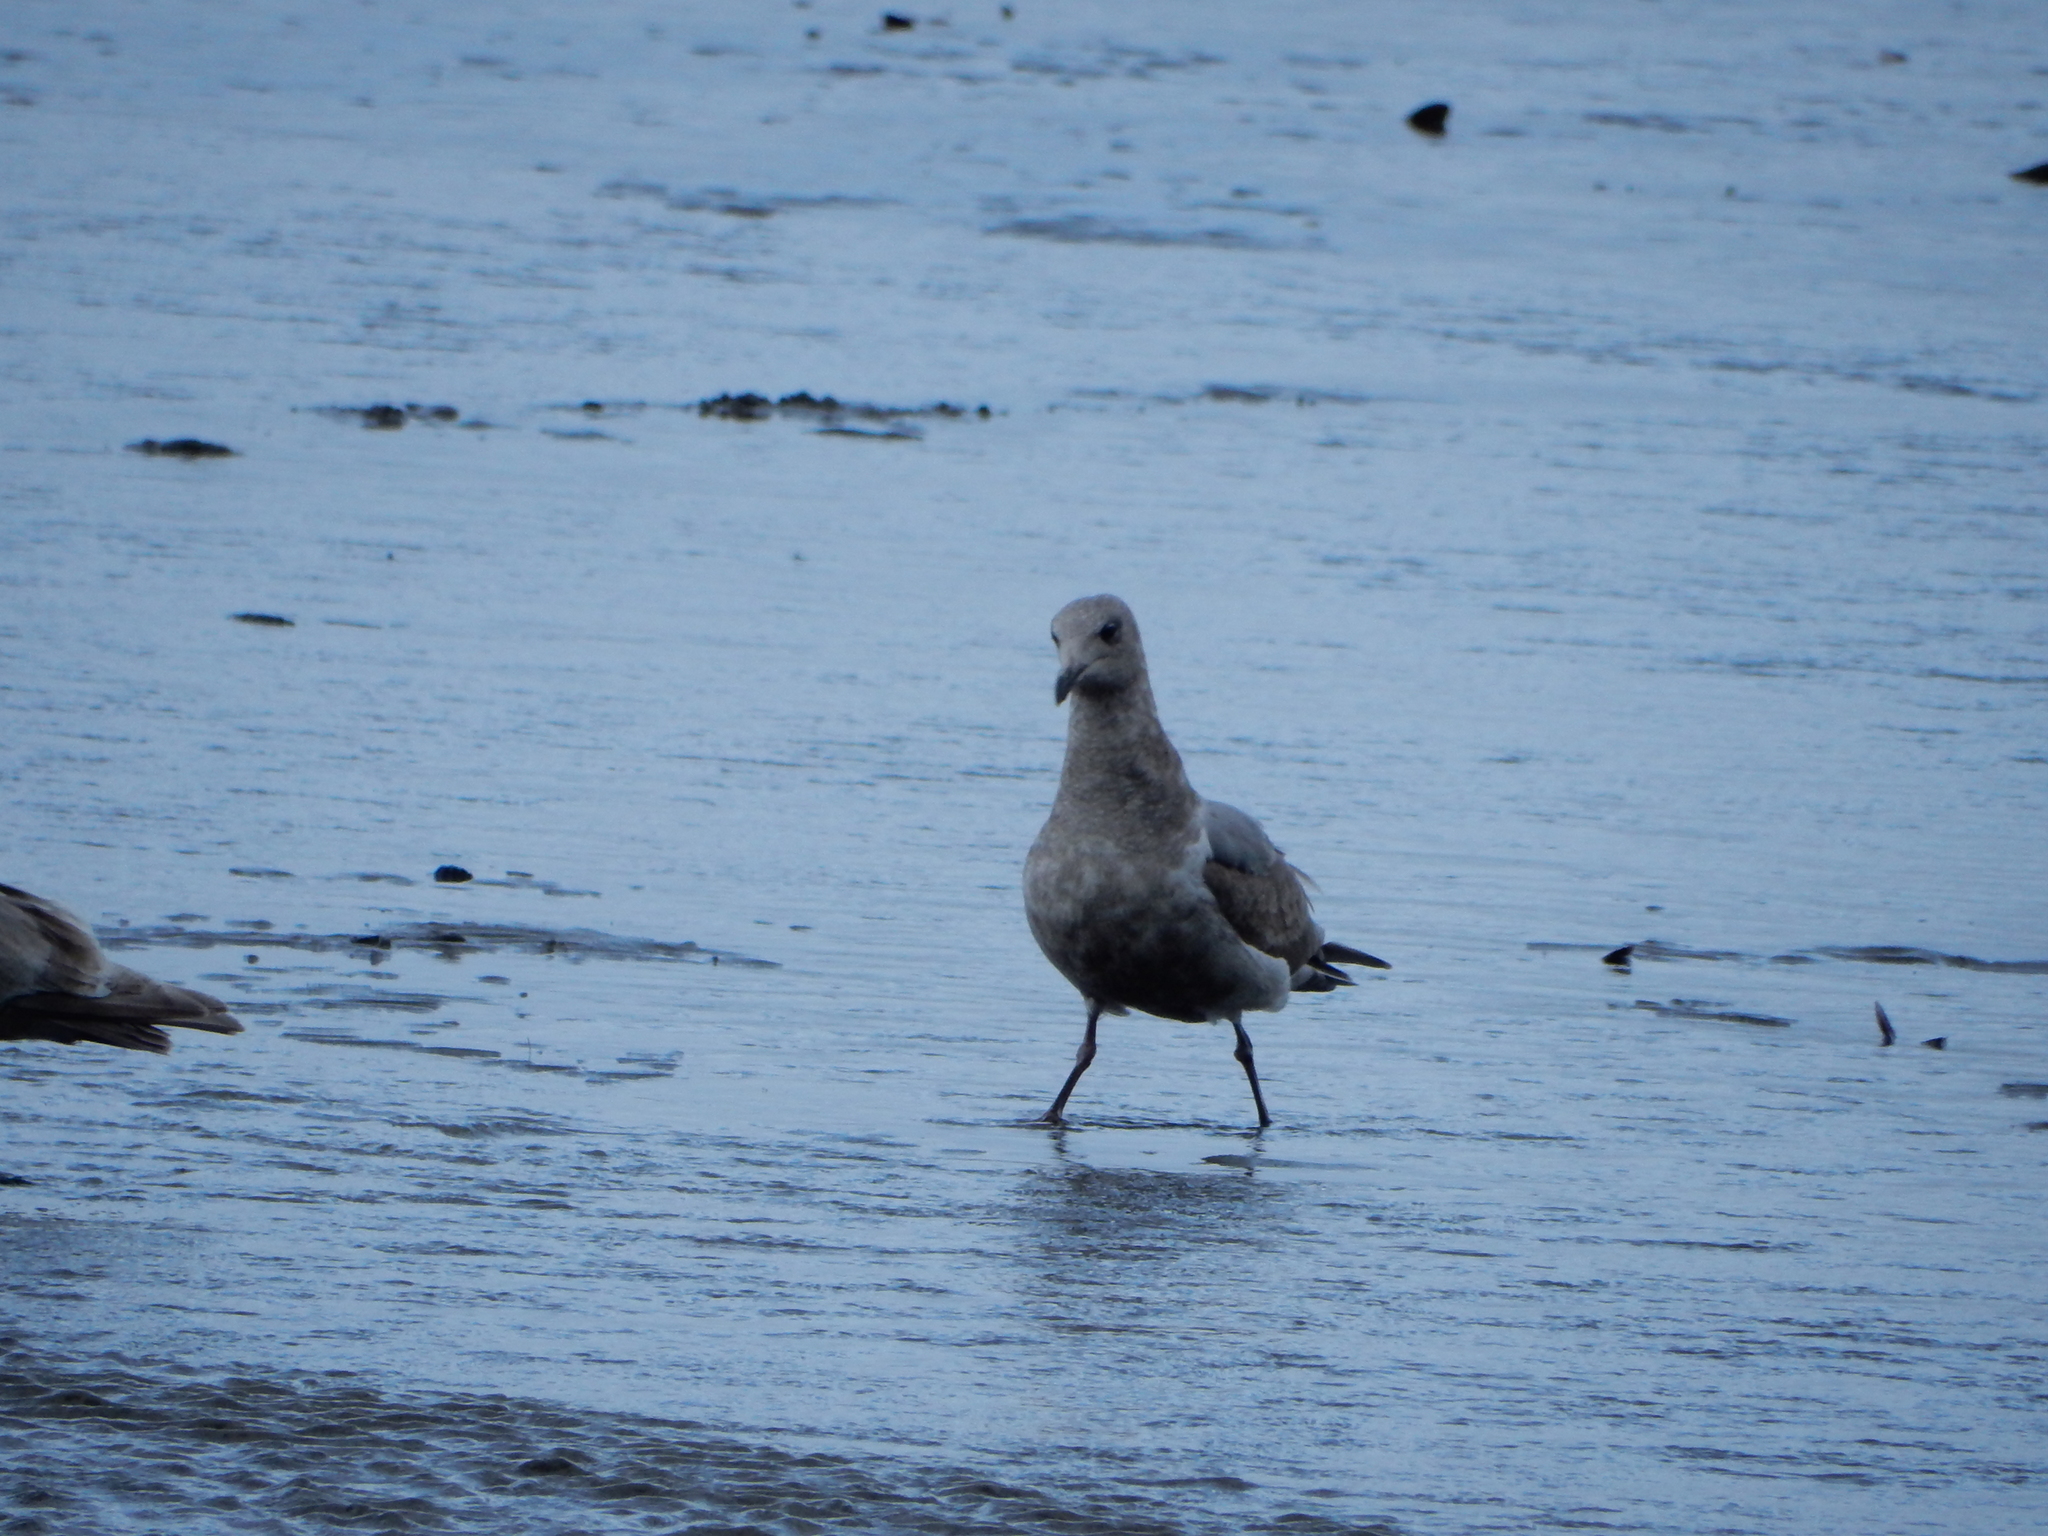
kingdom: Animalia
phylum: Chordata
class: Aves
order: Charadriiformes
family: Laridae
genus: Larus
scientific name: Larus glaucescens
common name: Glaucous-winged gull
